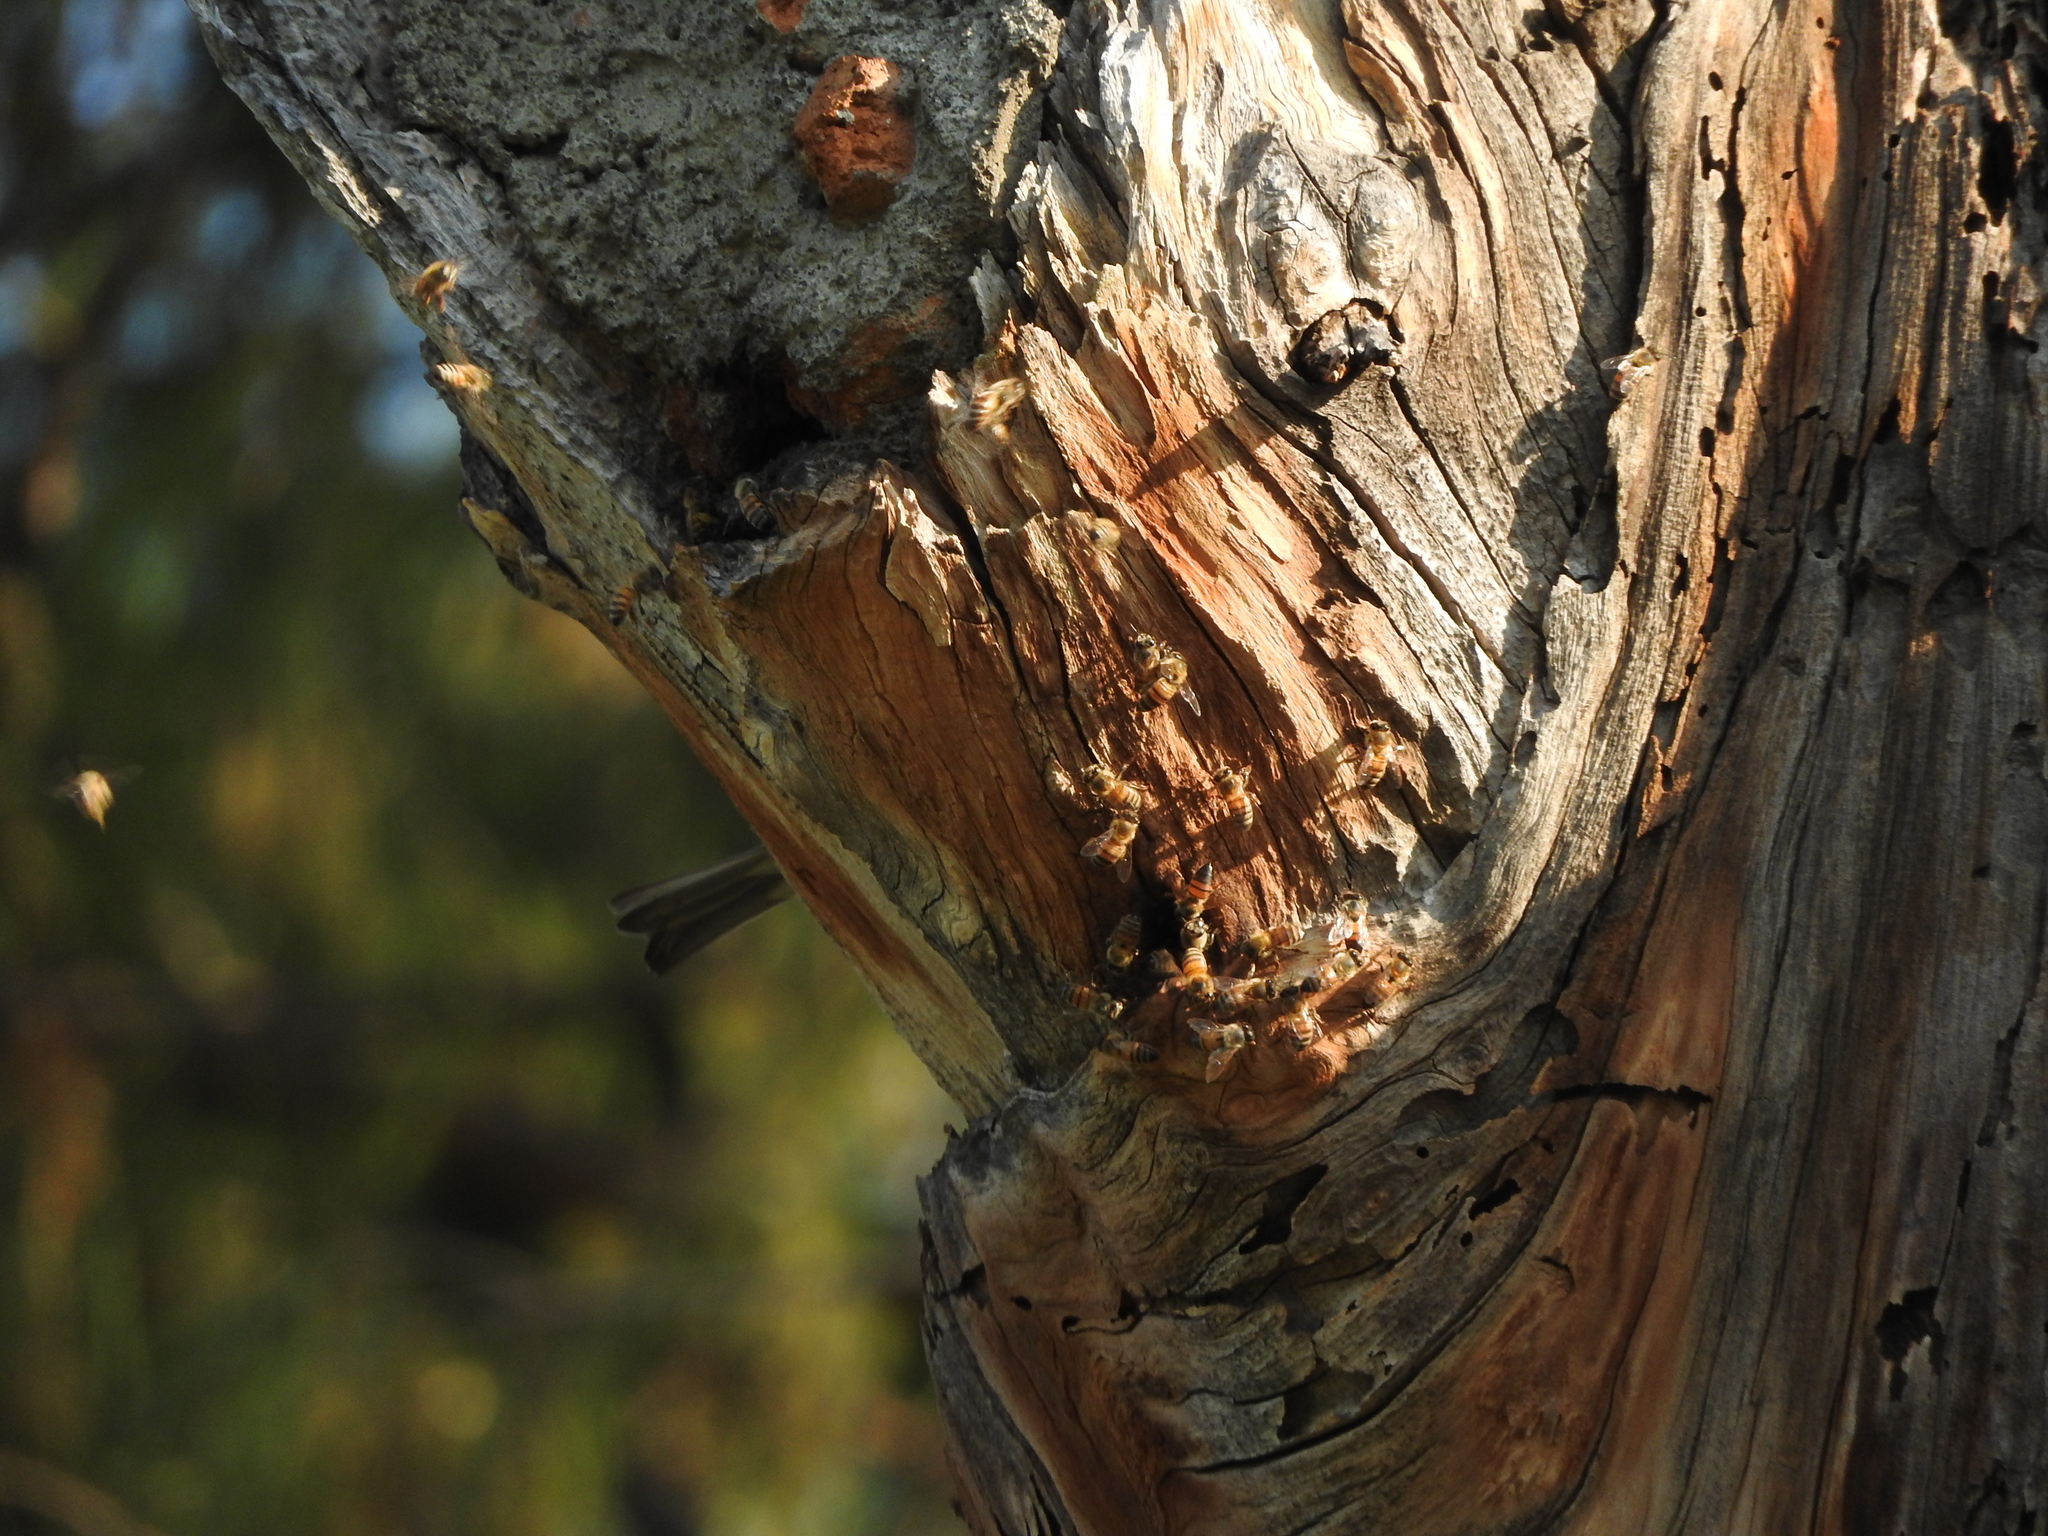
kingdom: Animalia
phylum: Arthropoda
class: Insecta
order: Hymenoptera
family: Apidae
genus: Apis
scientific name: Apis mellifera
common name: Honey bee
